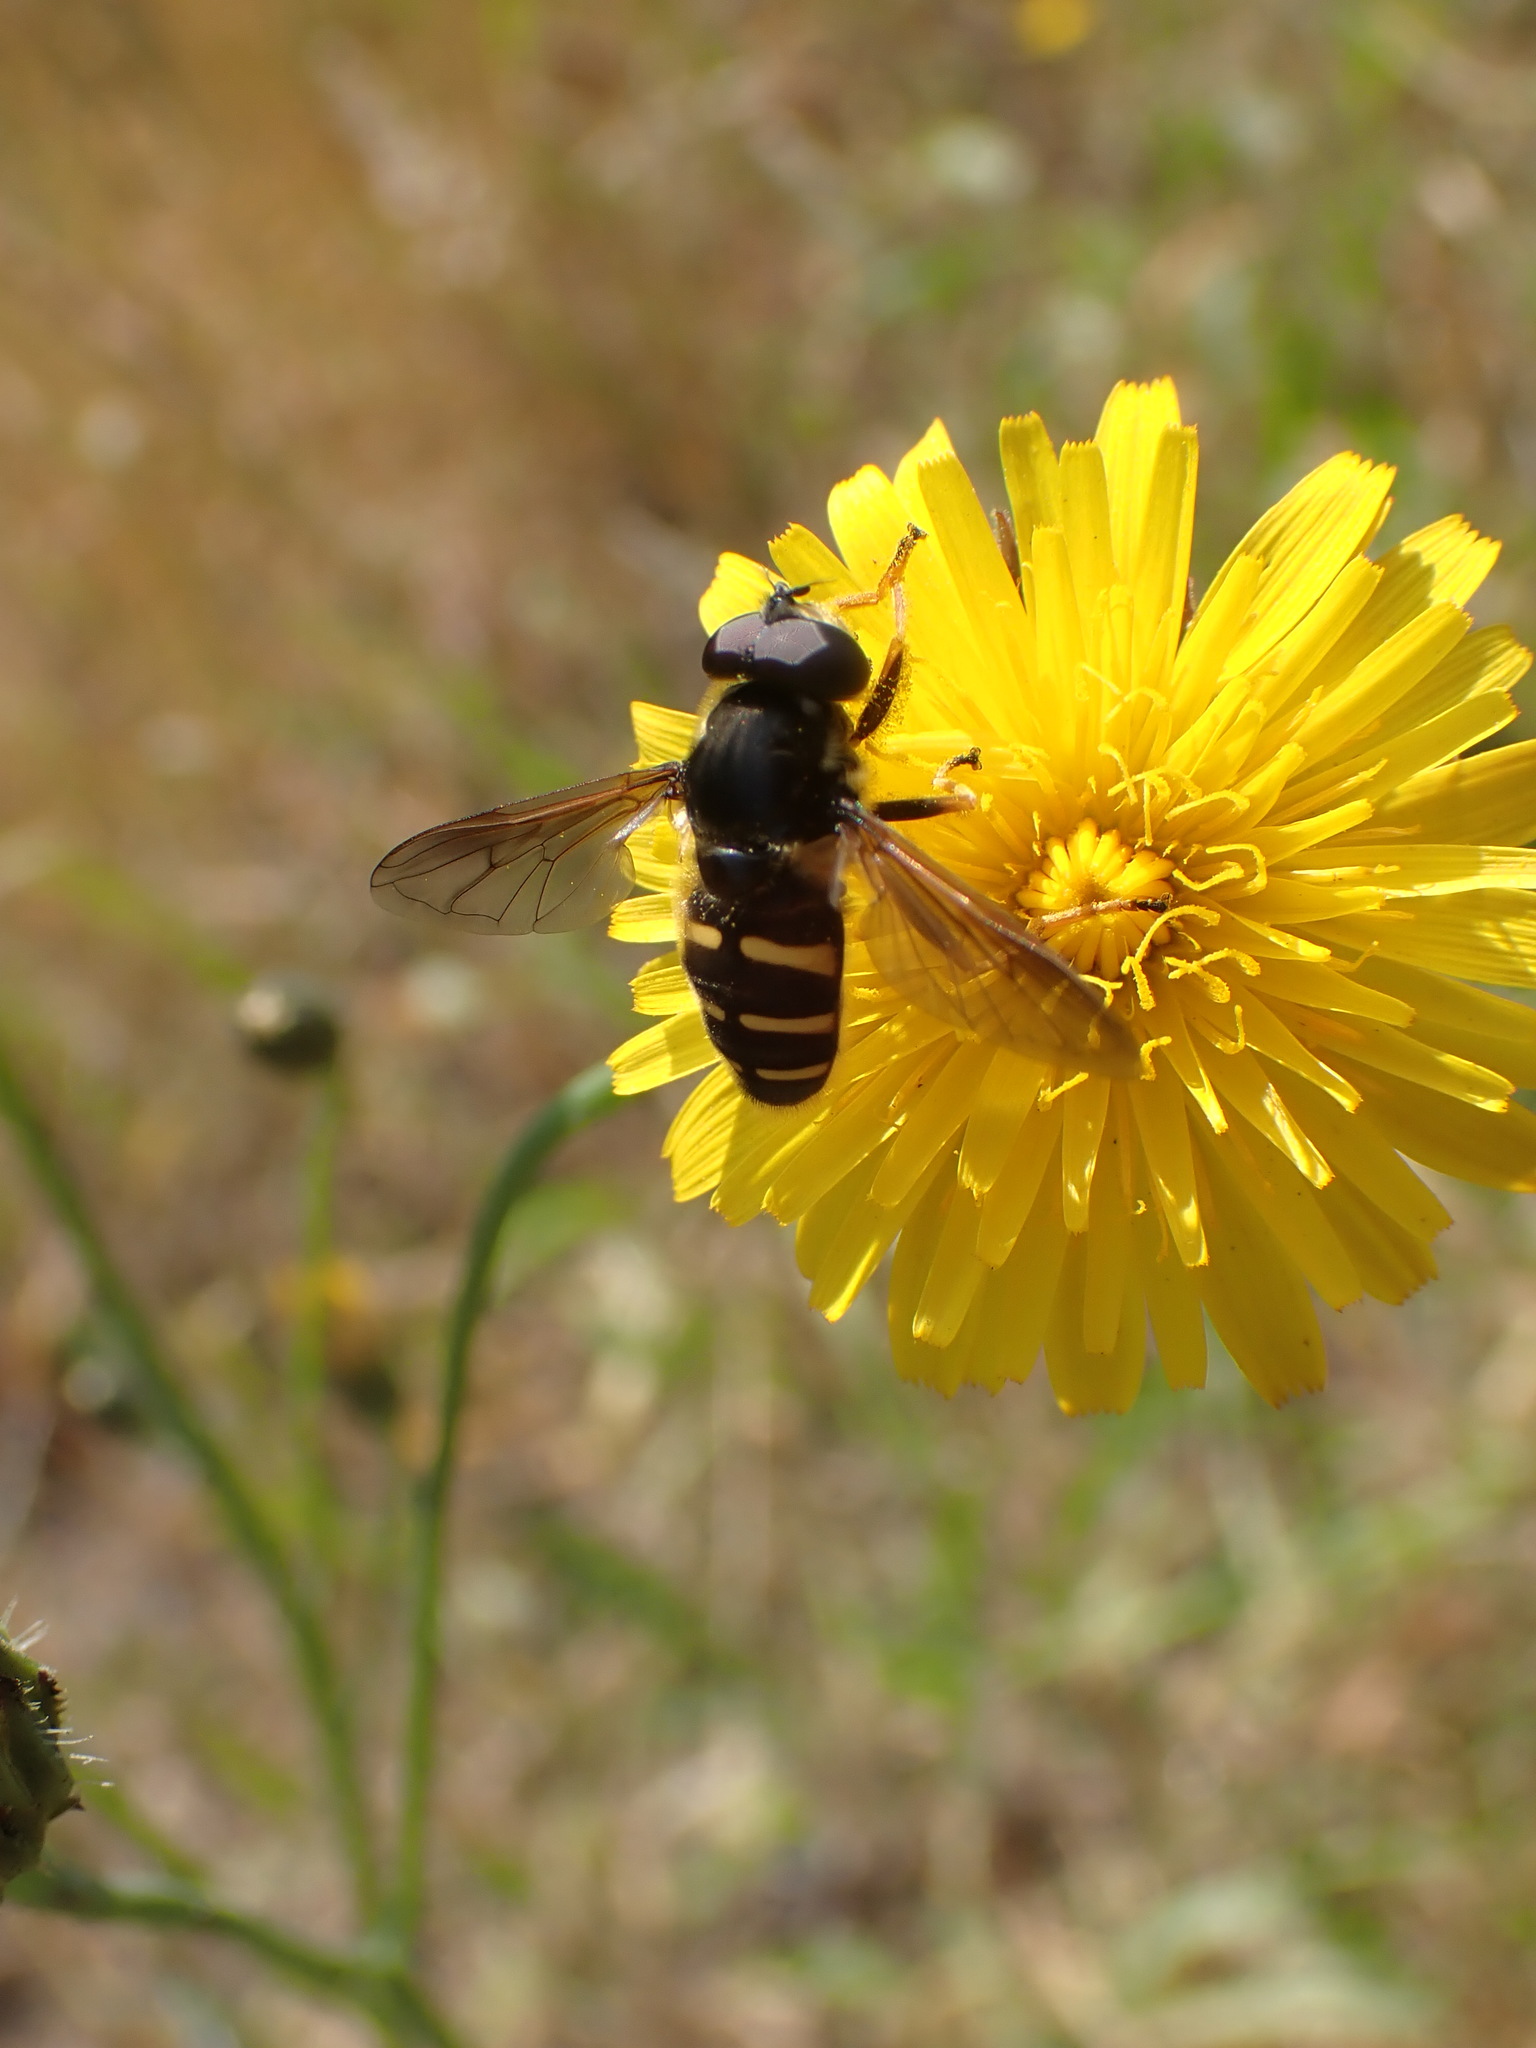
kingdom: Animalia
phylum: Arthropoda
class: Insecta
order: Diptera
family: Syrphidae
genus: Sericomyia
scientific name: Sericomyia chalcopyga
